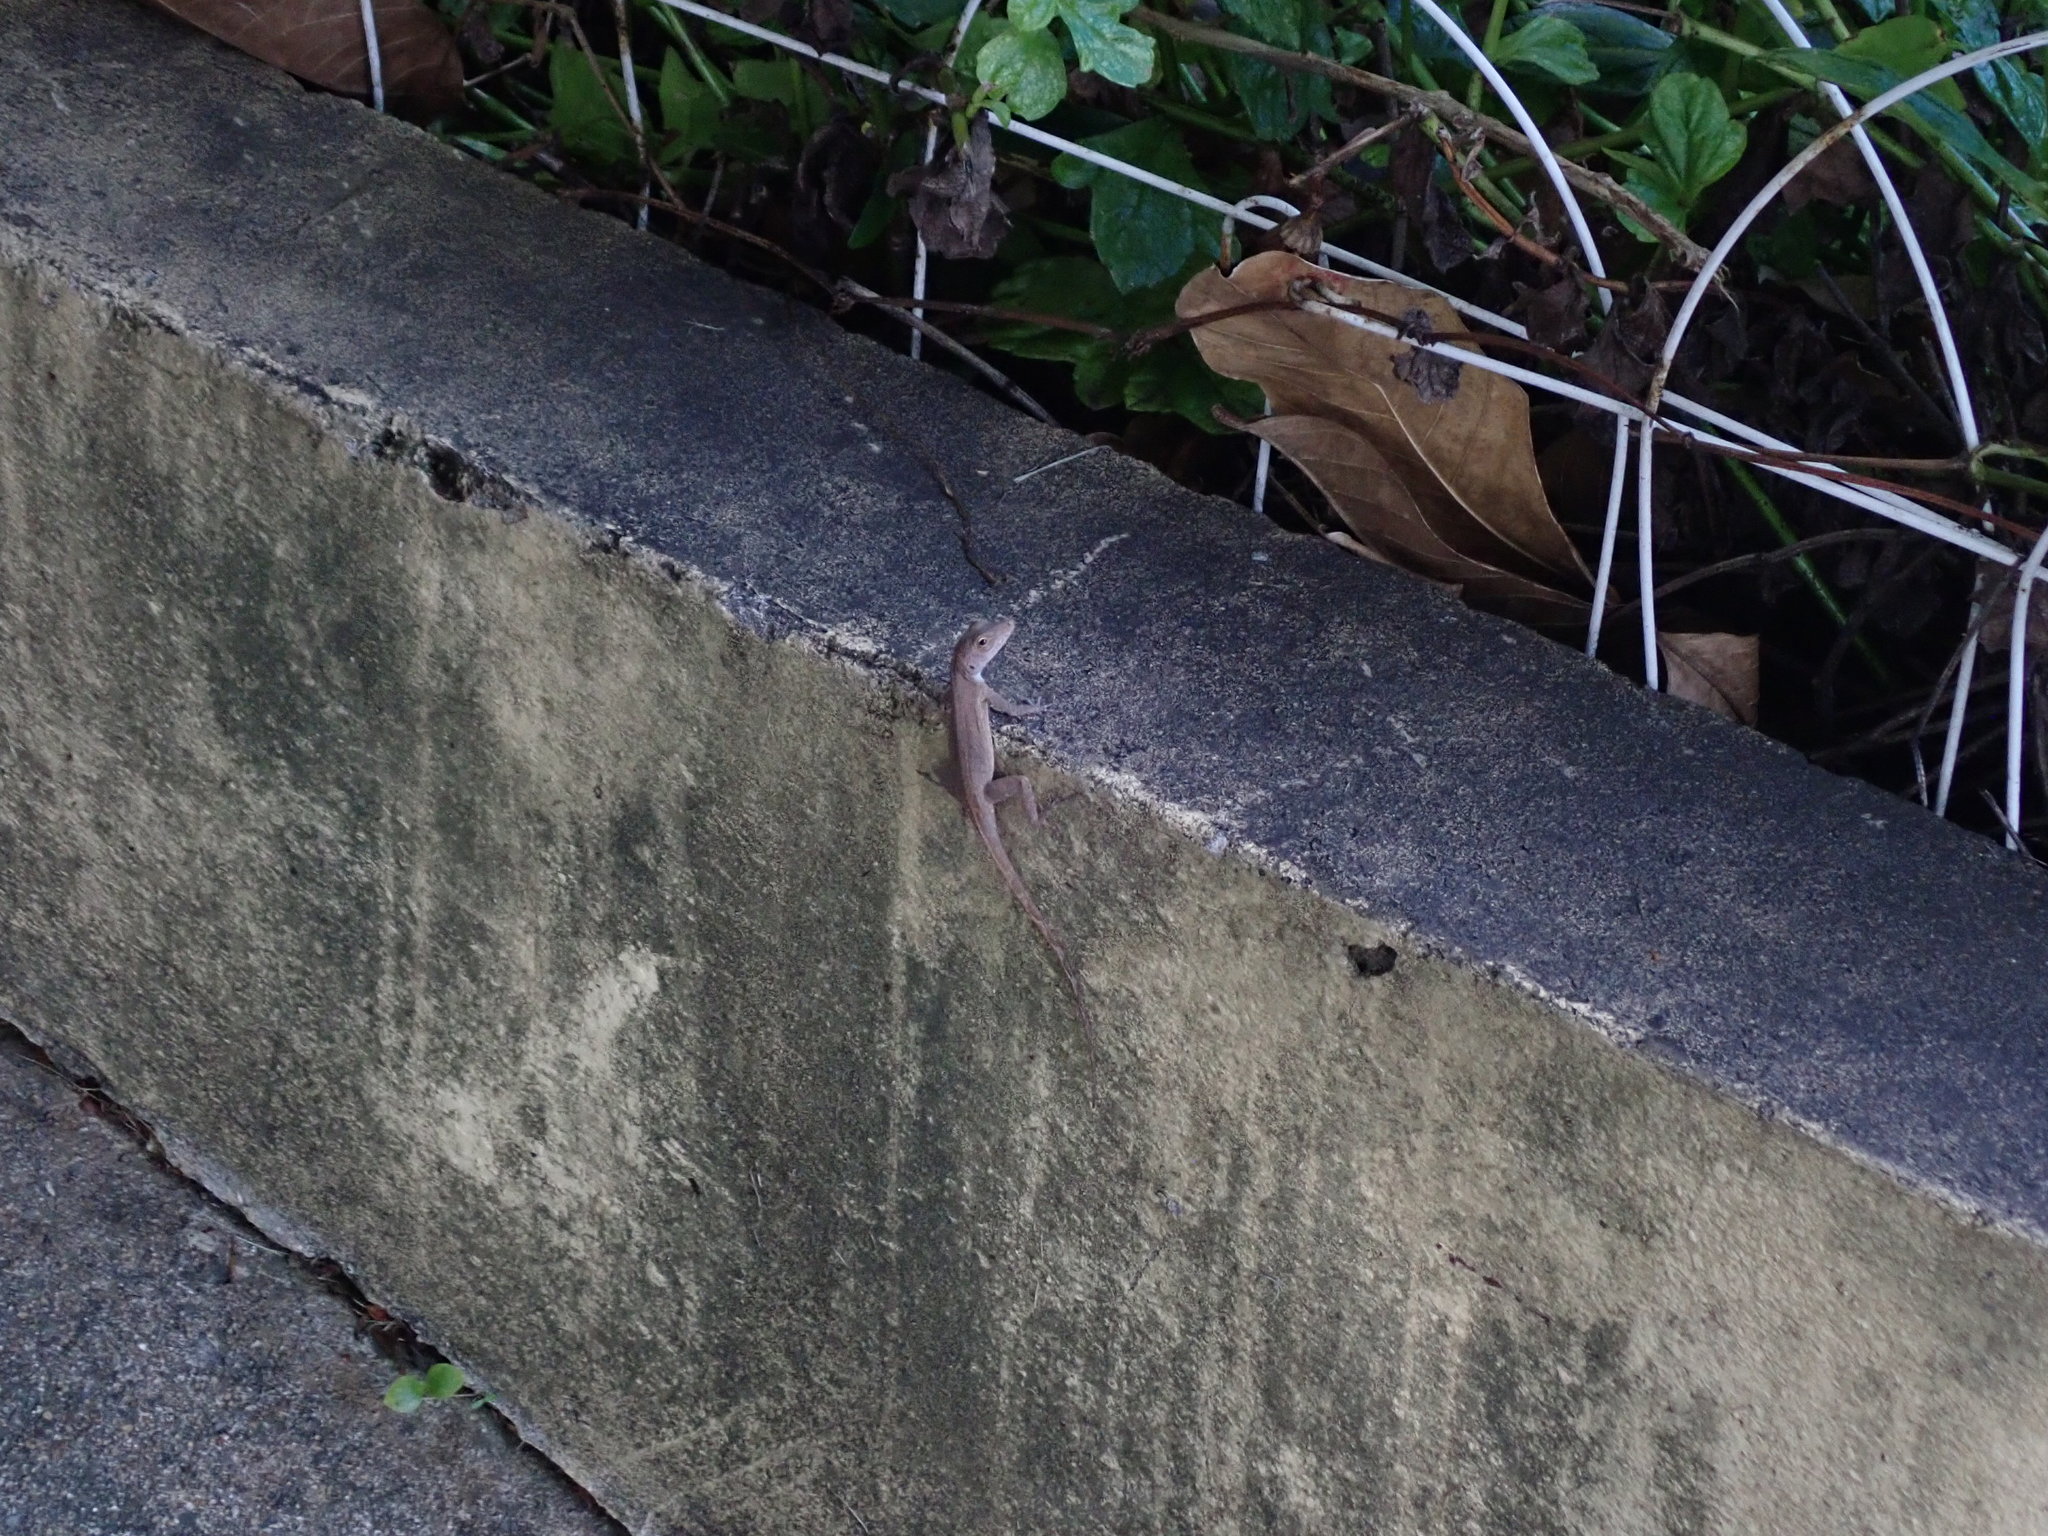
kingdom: Animalia
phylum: Chordata
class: Squamata
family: Dactyloidae
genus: Anolis
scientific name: Anolis cristatellus
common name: Crested anole
